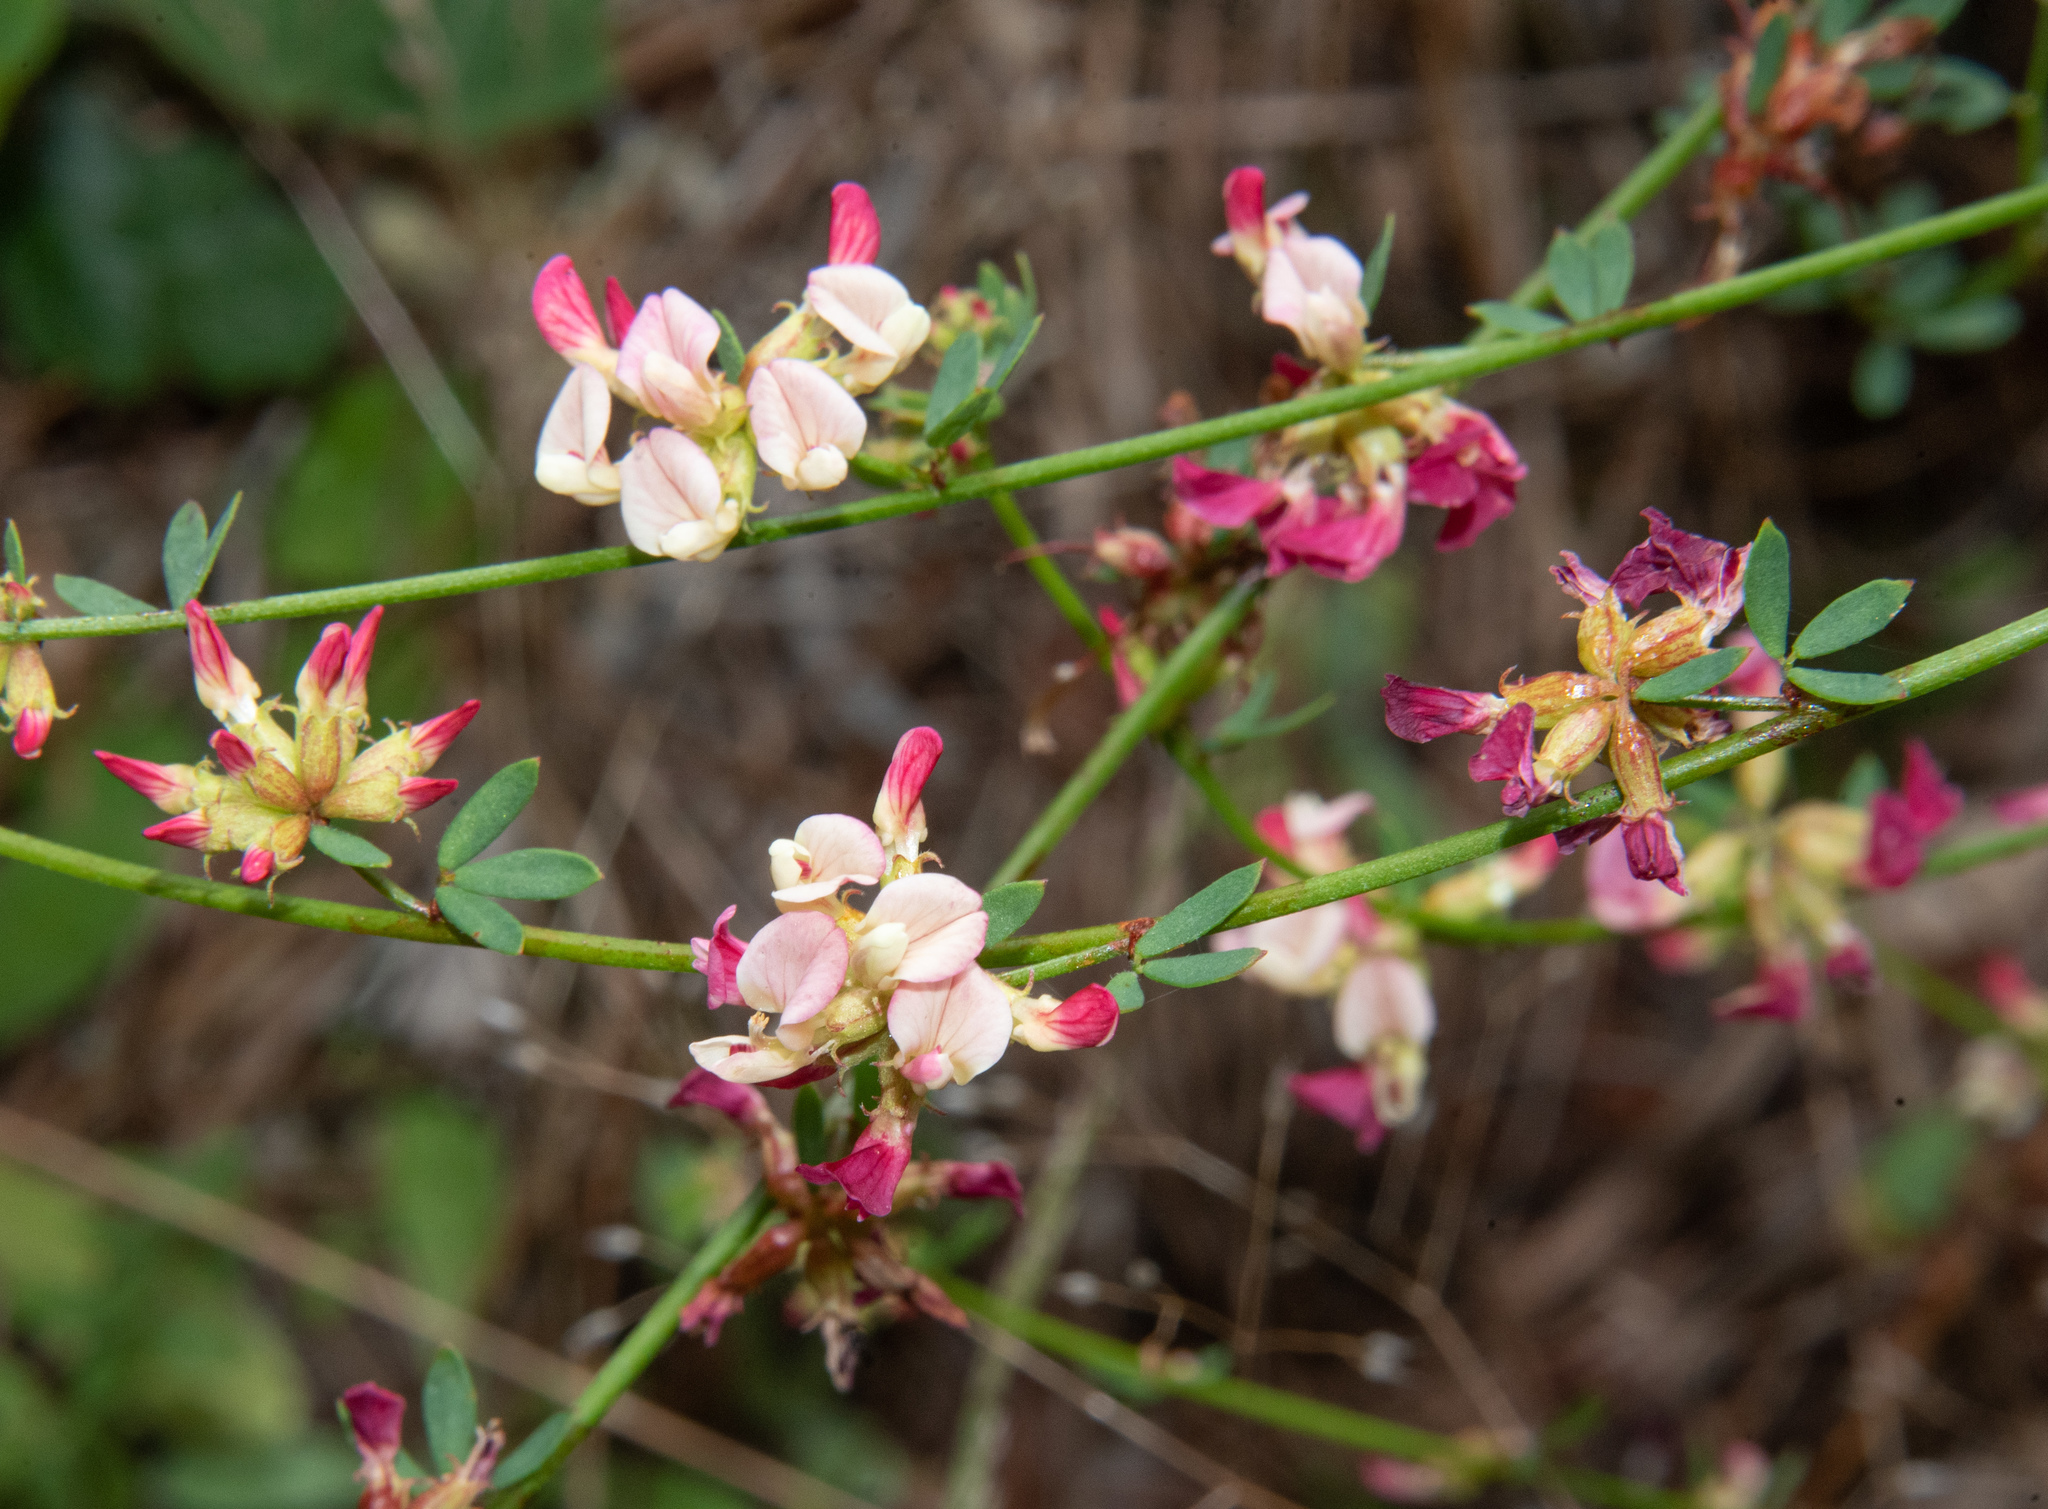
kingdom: Plantae
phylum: Tracheophyta
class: Magnoliopsida
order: Fabales
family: Fabaceae
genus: Acmispon
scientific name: Acmispon cytisoides
